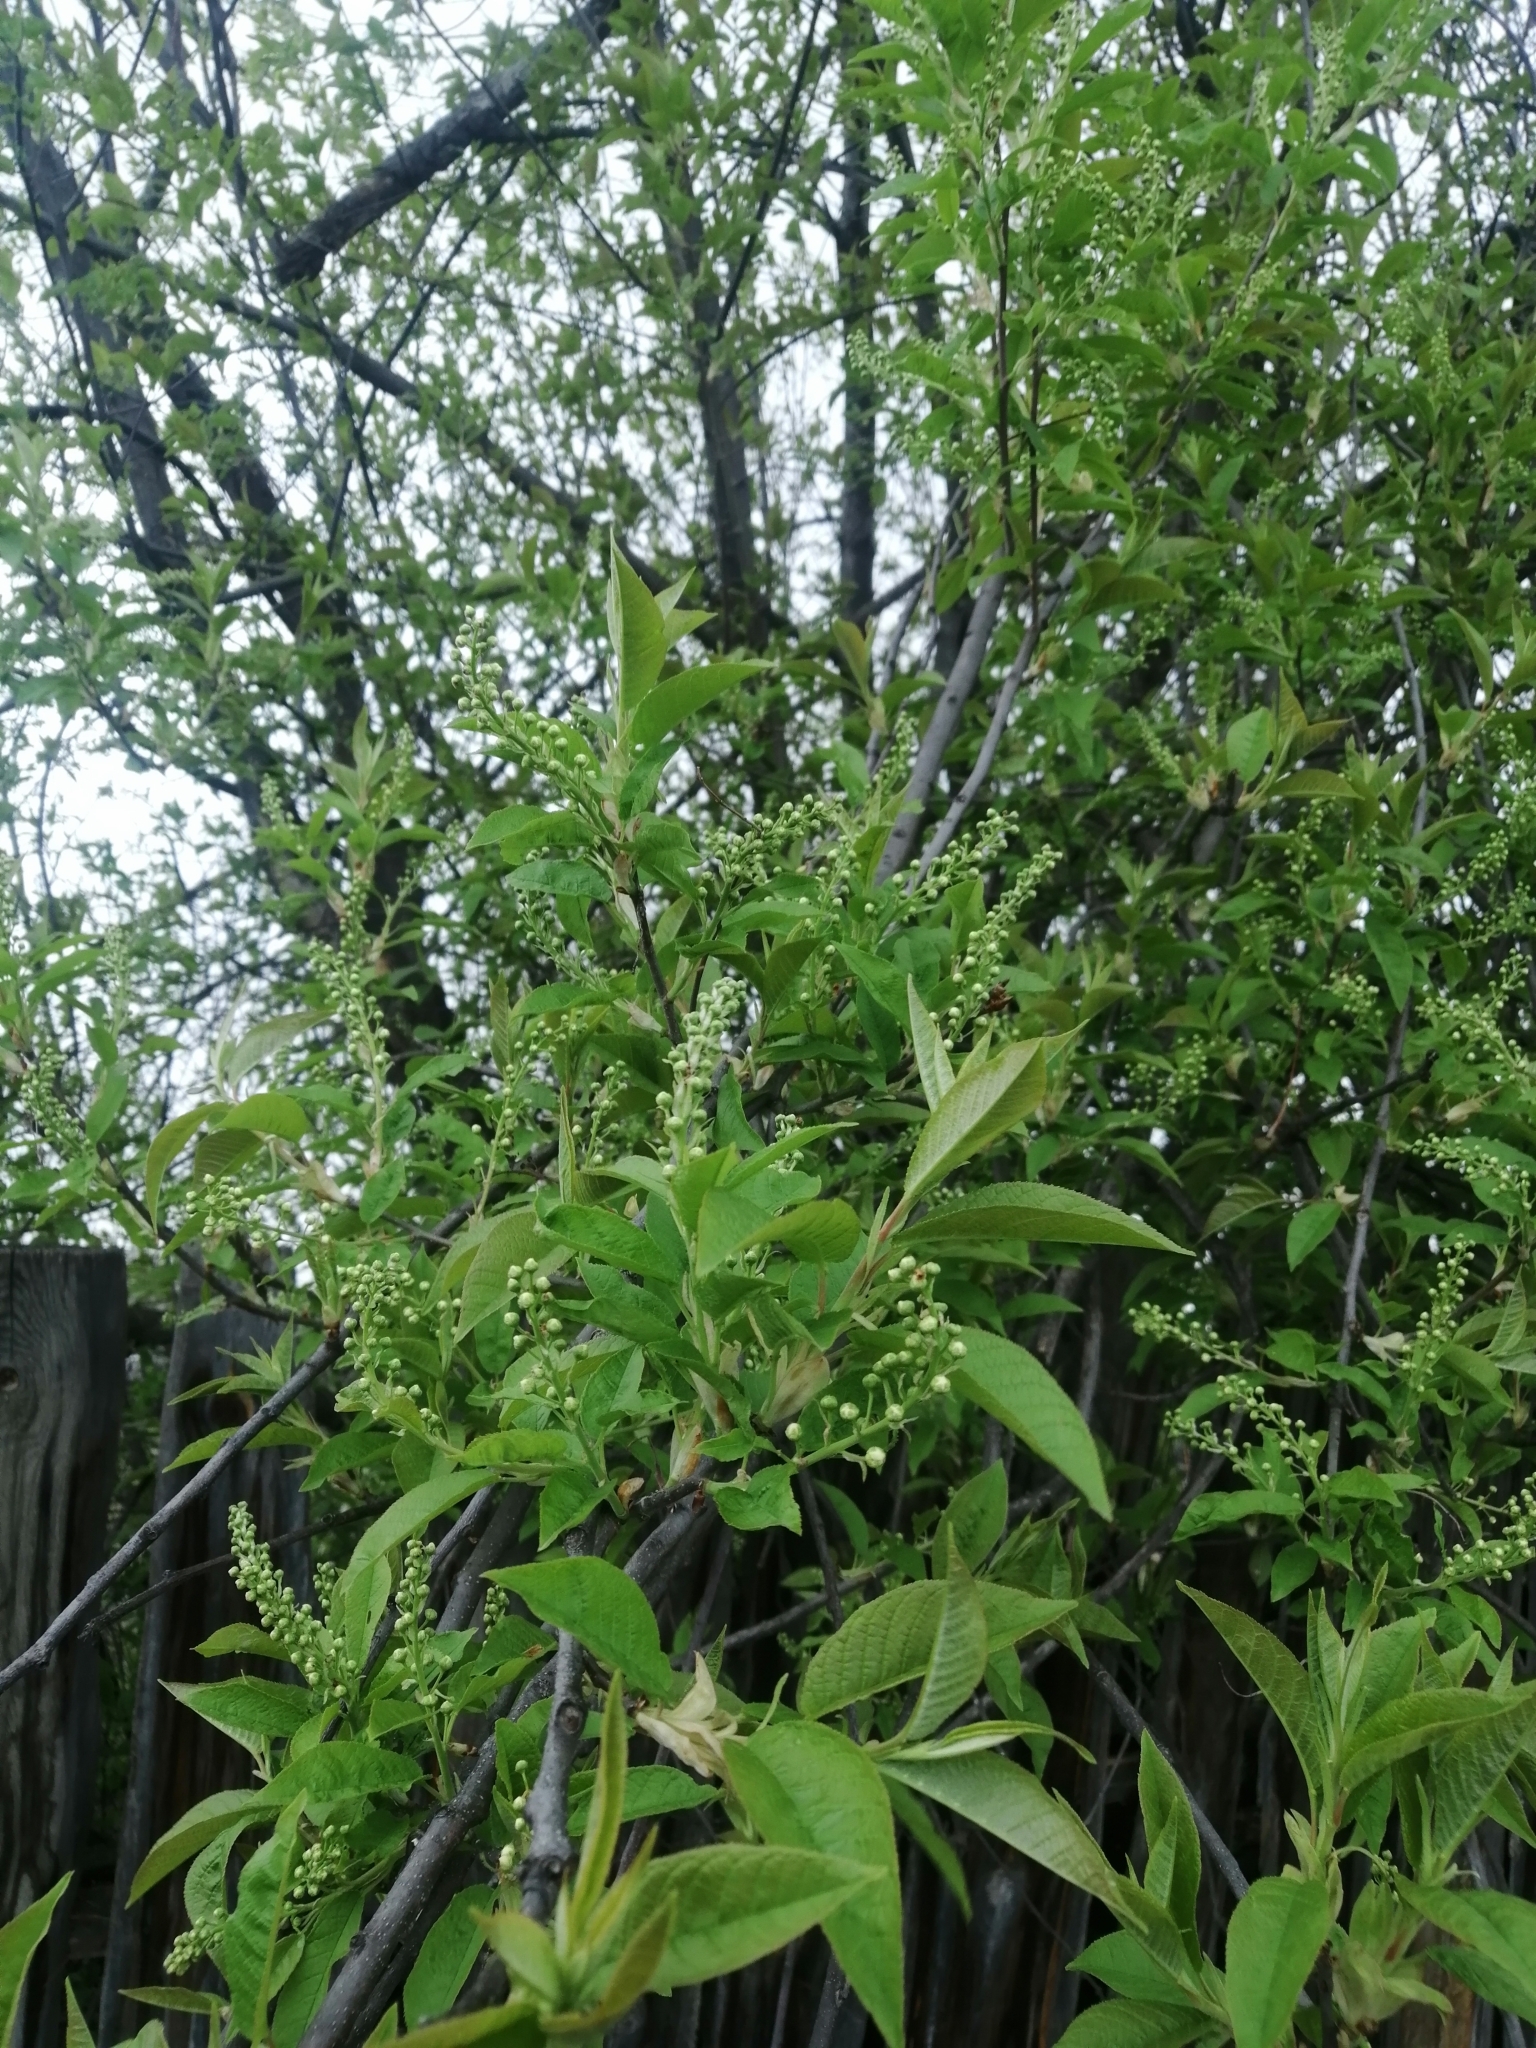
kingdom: Plantae
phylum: Tracheophyta
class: Magnoliopsida
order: Rosales
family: Rosaceae
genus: Prunus
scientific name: Prunus padus
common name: Bird cherry
